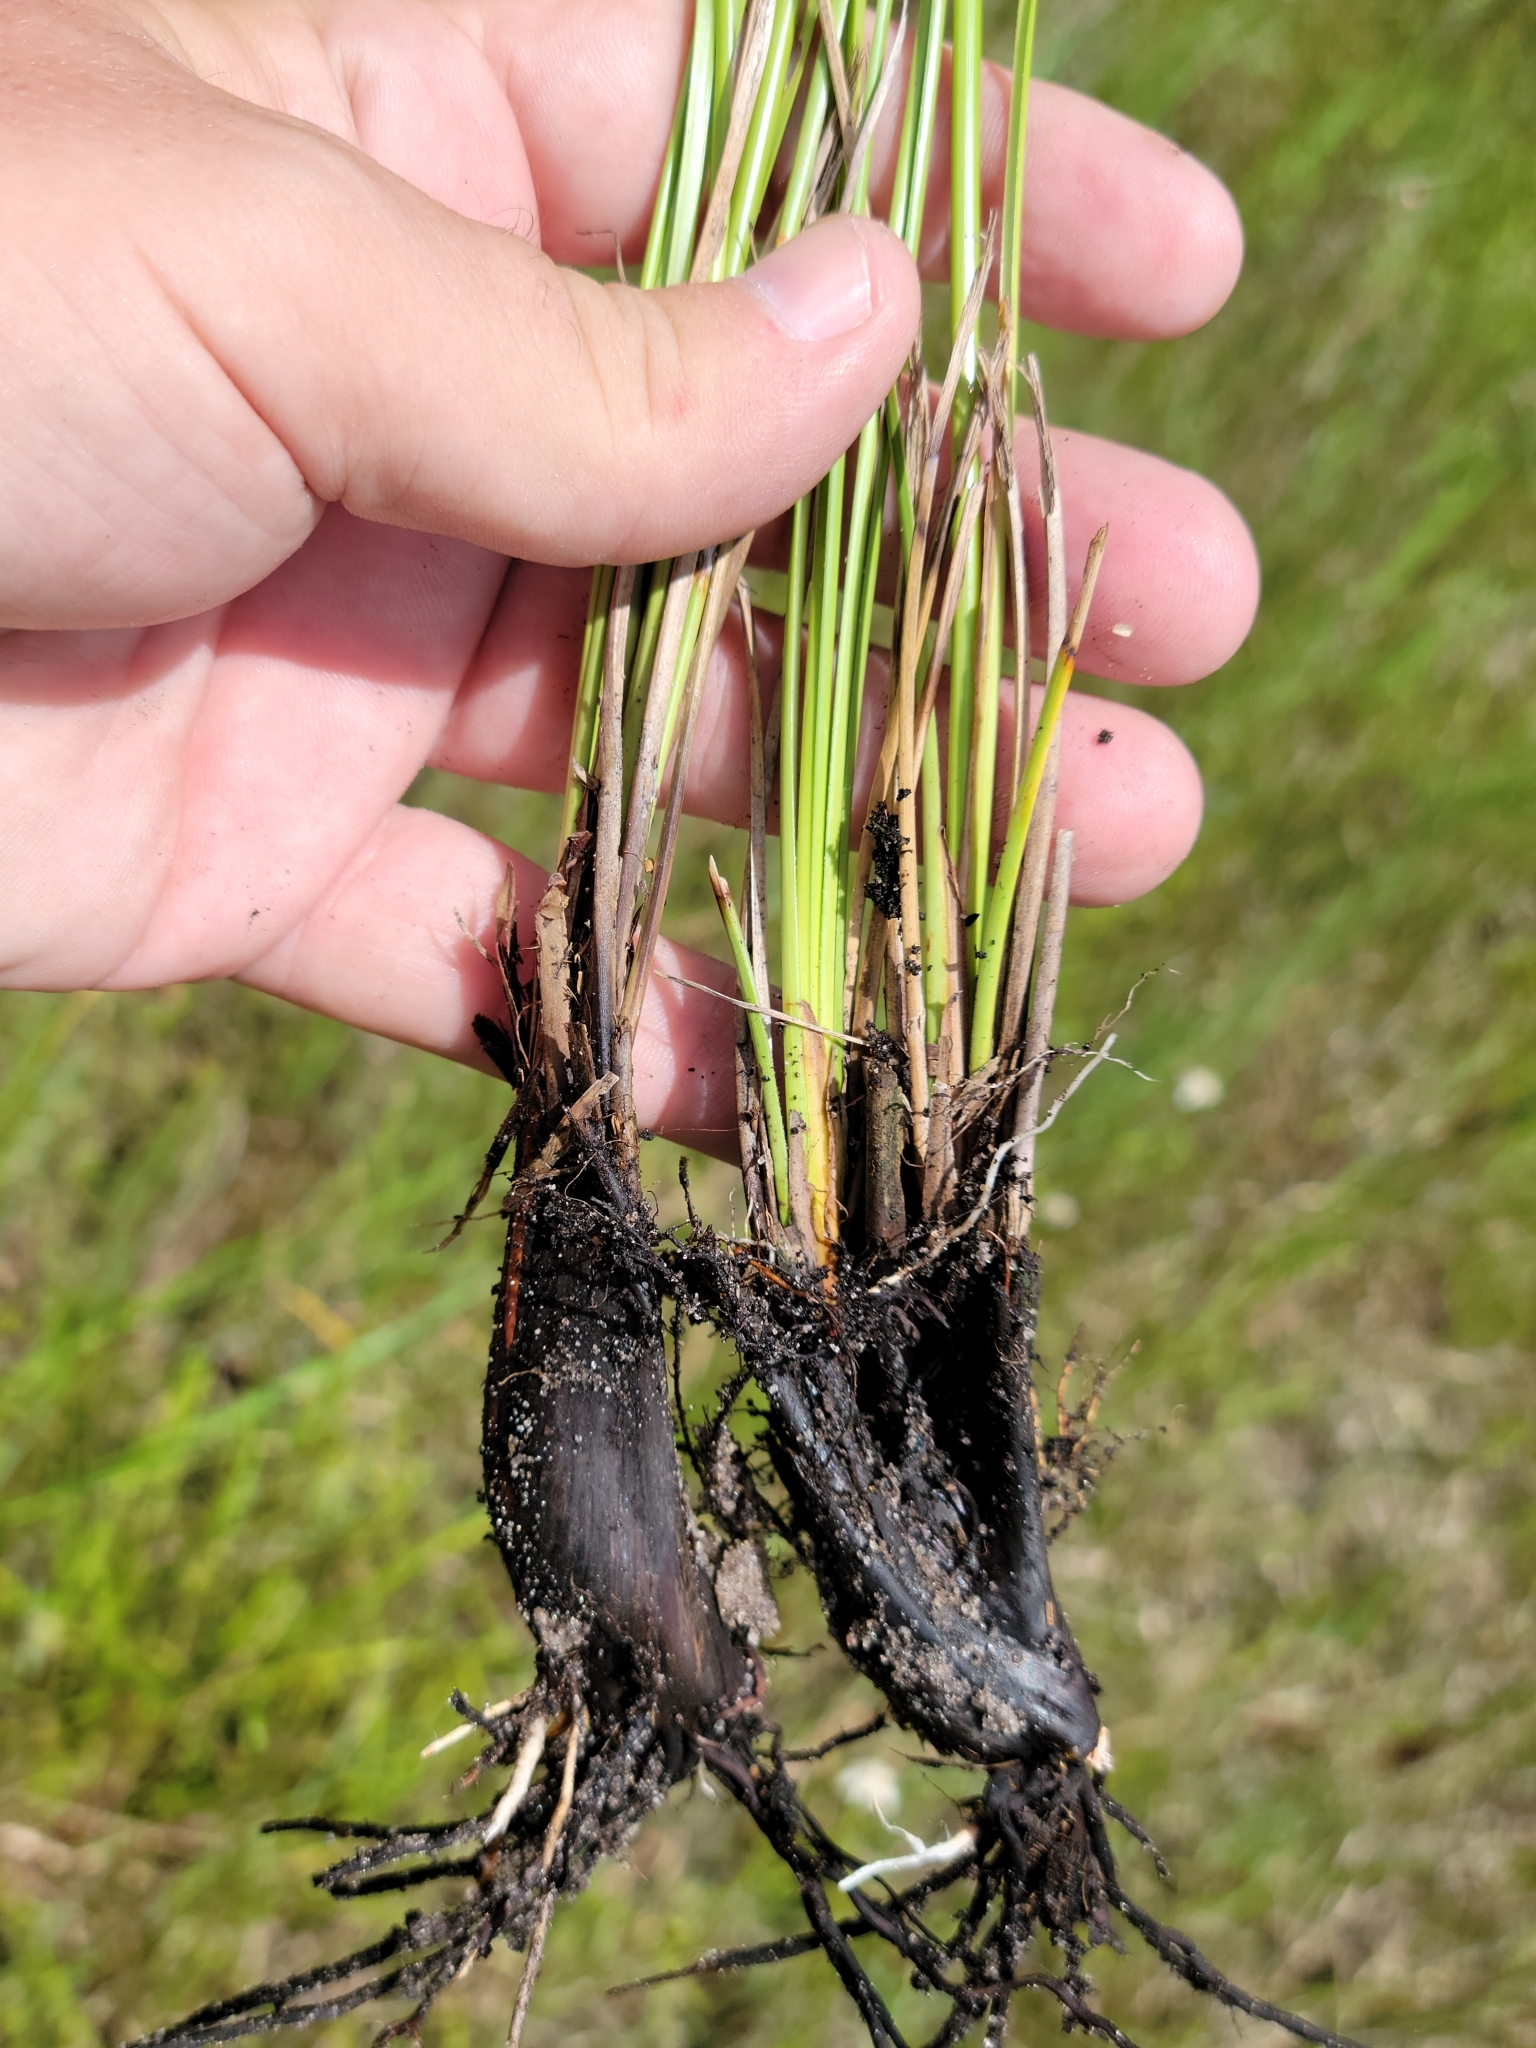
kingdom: Plantae
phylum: Tracheophyta
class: Liliopsida
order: Poales
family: Cyperaceae
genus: Fimbristylis
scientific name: Fimbristylis spadicea
